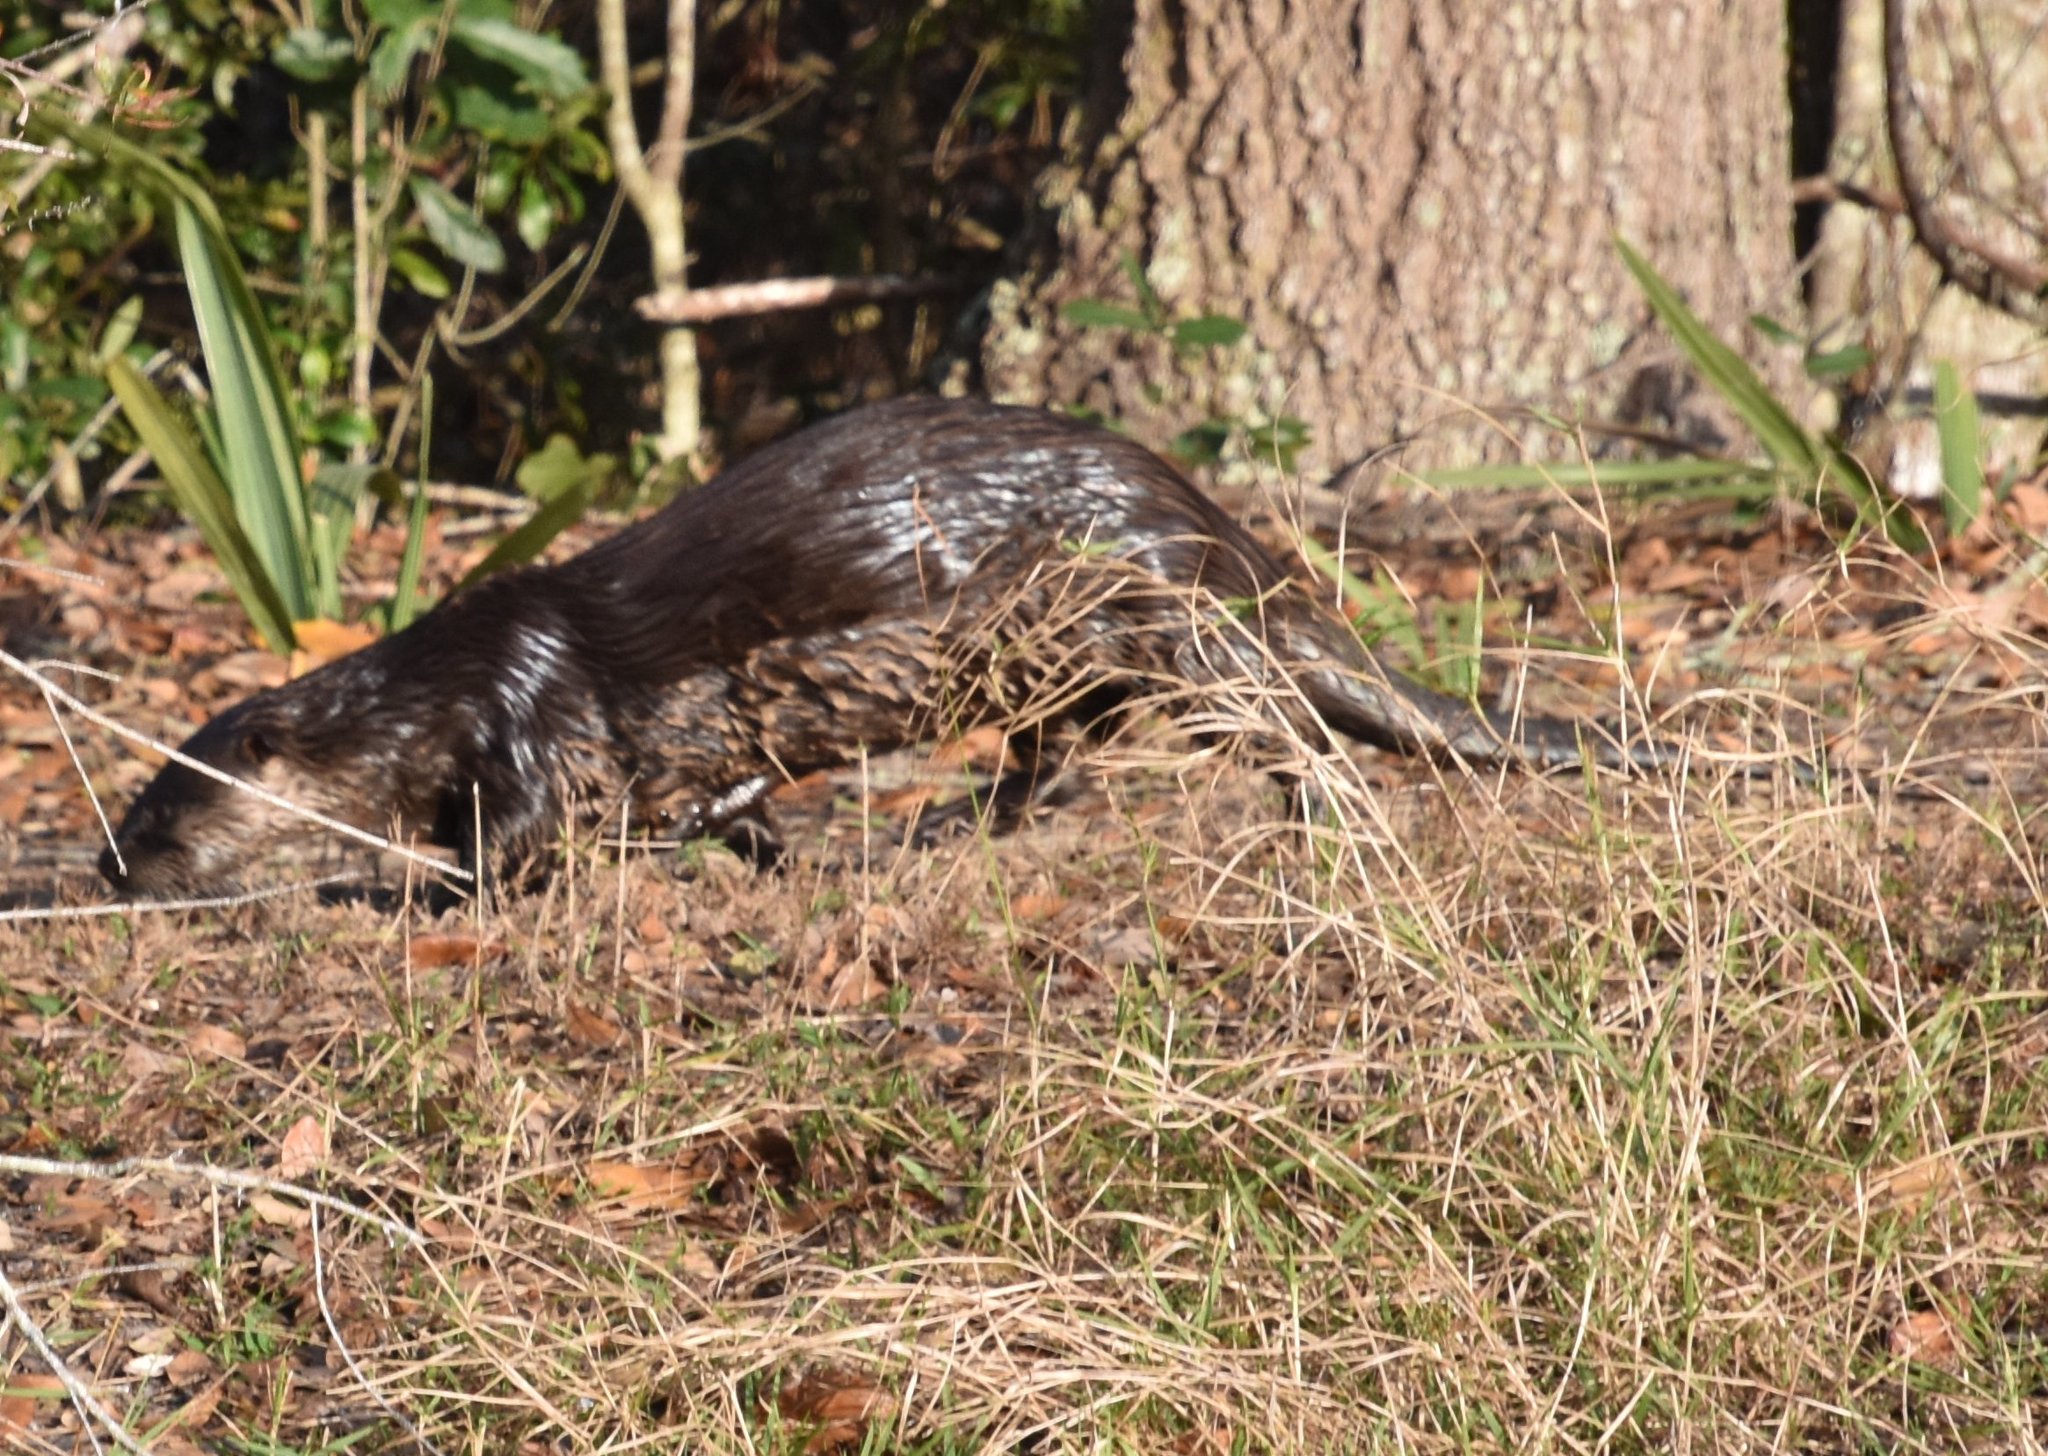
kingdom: Animalia
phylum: Chordata
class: Mammalia
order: Carnivora
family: Mustelidae
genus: Lontra
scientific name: Lontra canadensis
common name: North american river otter
